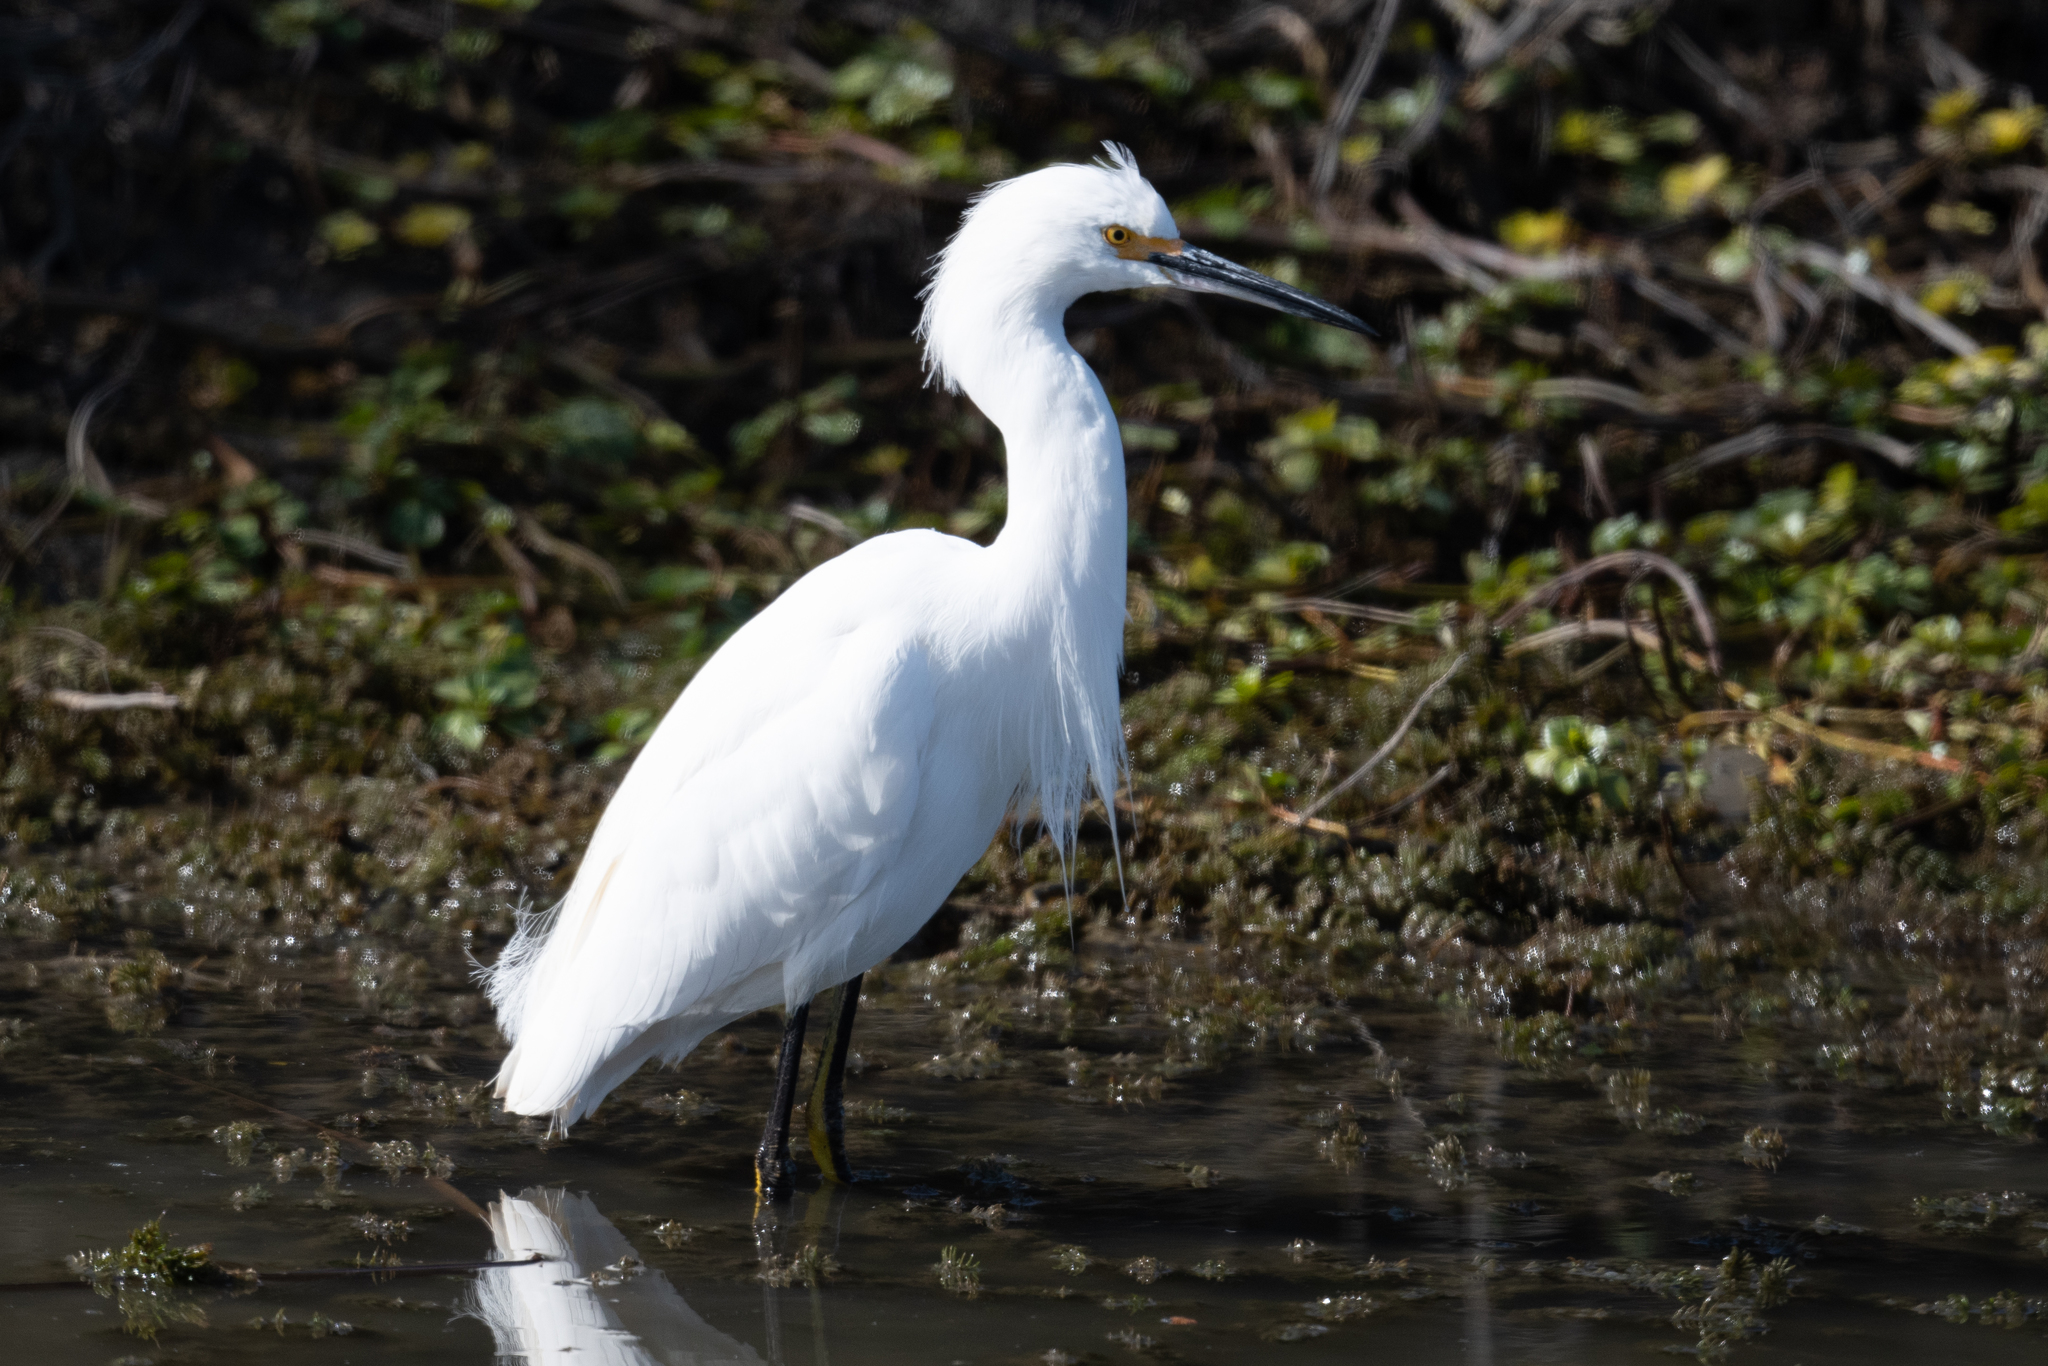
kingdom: Animalia
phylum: Chordata
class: Aves
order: Pelecaniformes
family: Ardeidae
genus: Egretta
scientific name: Egretta thula
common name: Snowy egret
